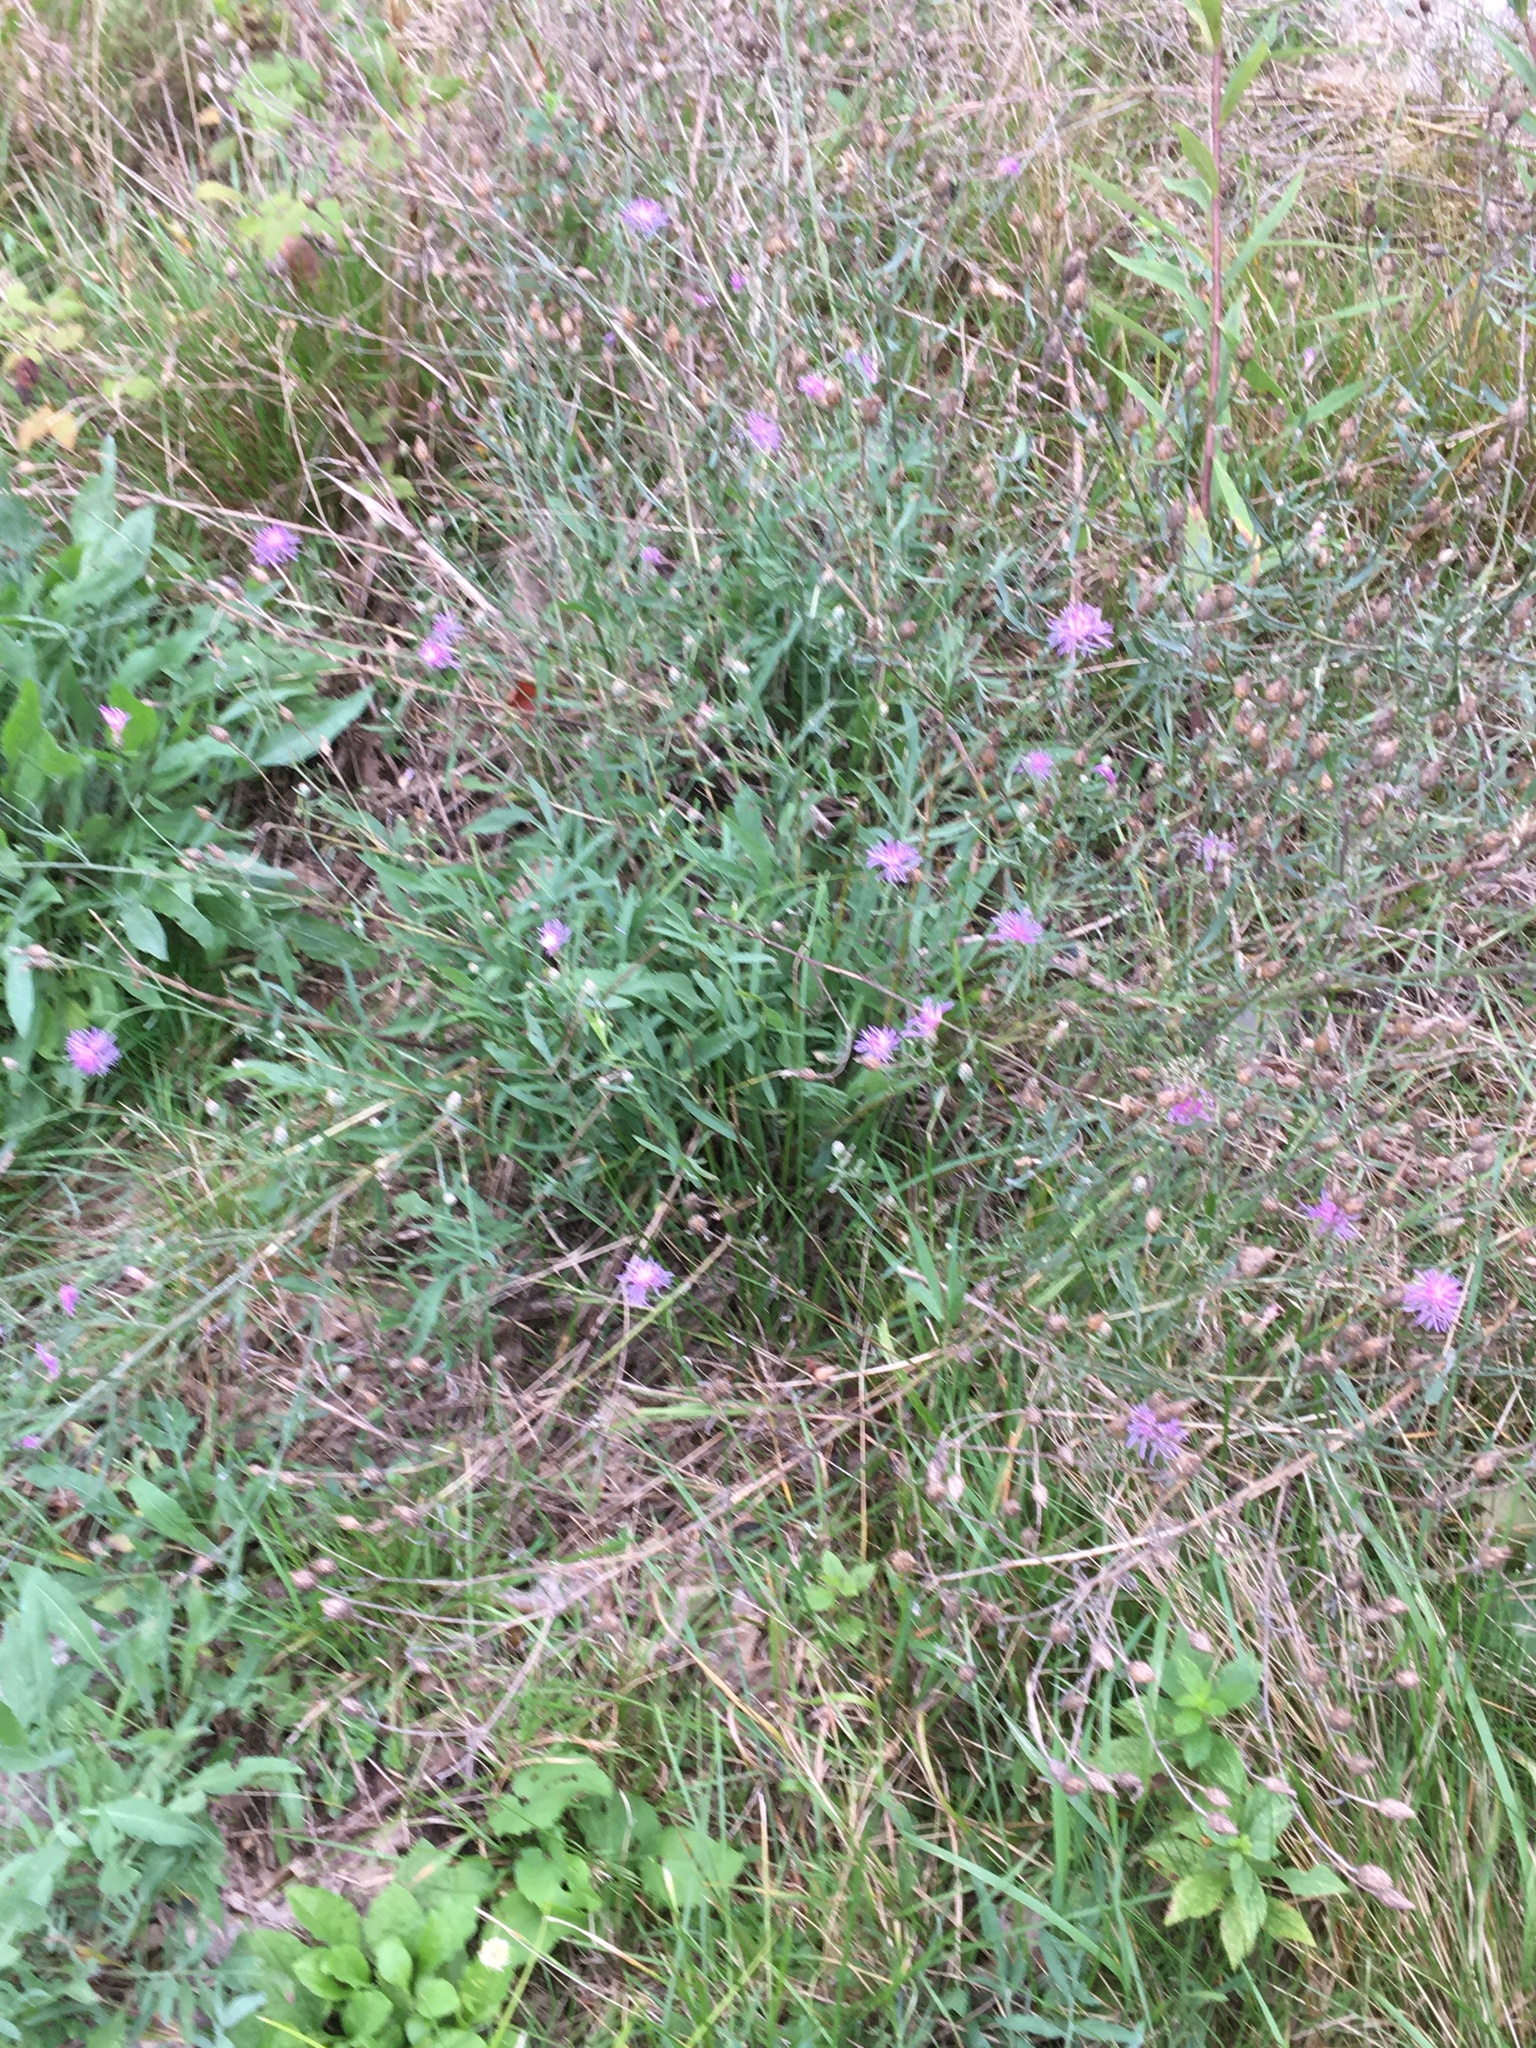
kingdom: Plantae
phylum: Tracheophyta
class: Magnoliopsida
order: Asterales
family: Asteraceae
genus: Centaurea
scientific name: Centaurea stoebe
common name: Spotted knapweed
